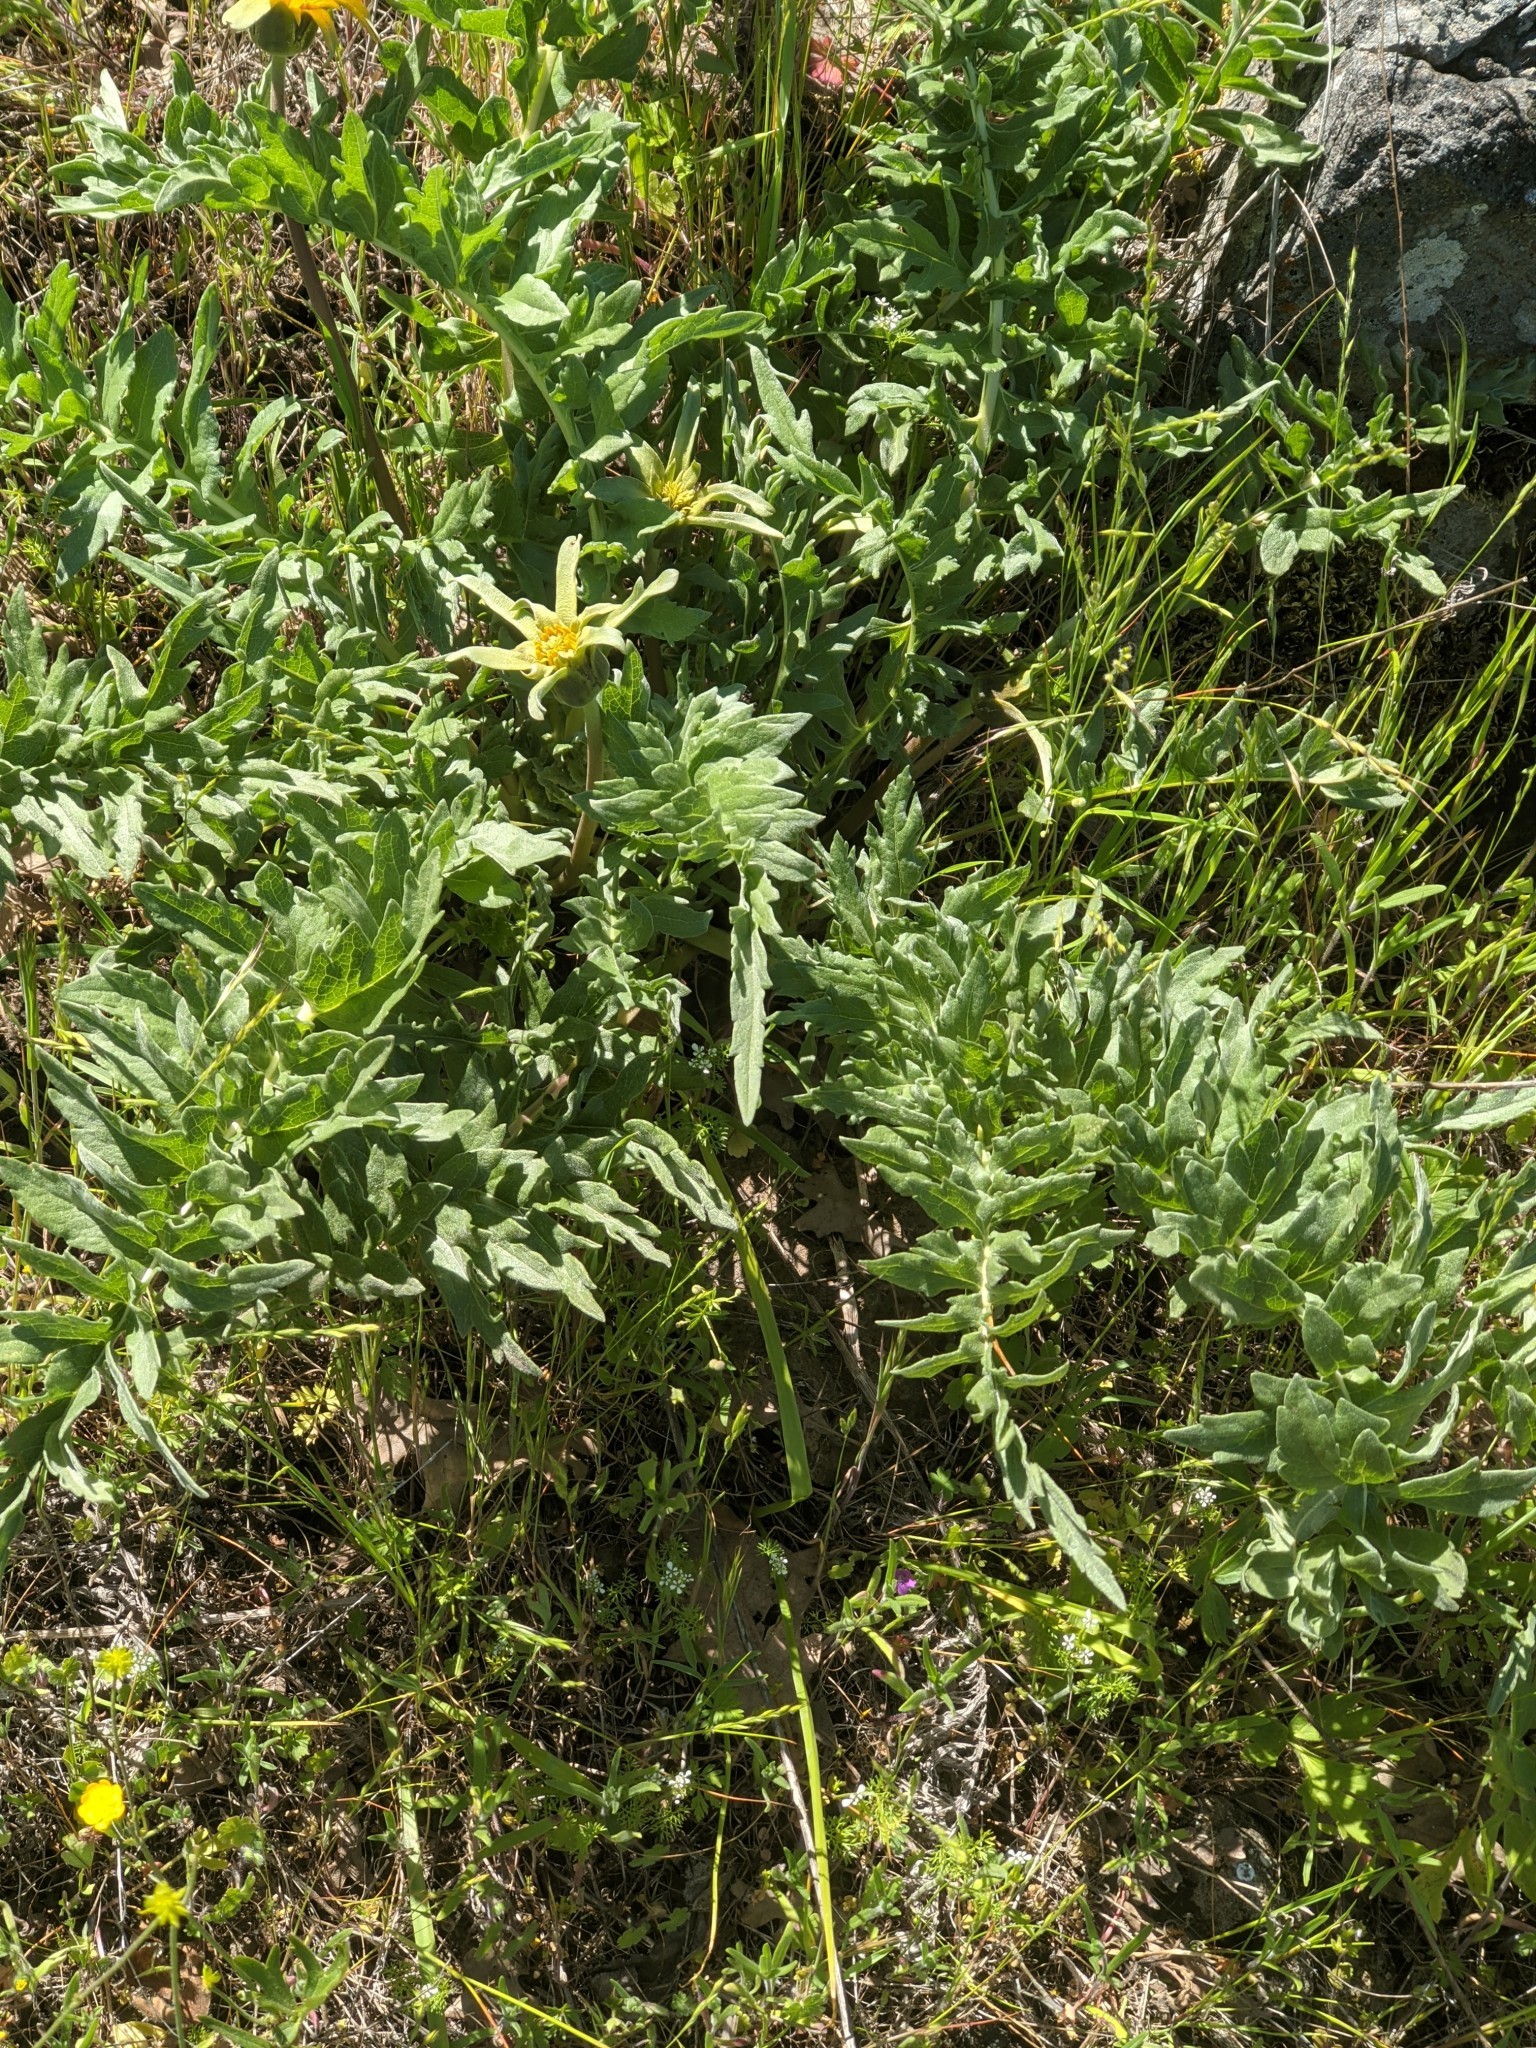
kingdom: Plantae
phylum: Tracheophyta
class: Magnoliopsida
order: Asterales
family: Asteraceae
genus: Balsamorhiza
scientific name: Balsamorhiza macrolepis
